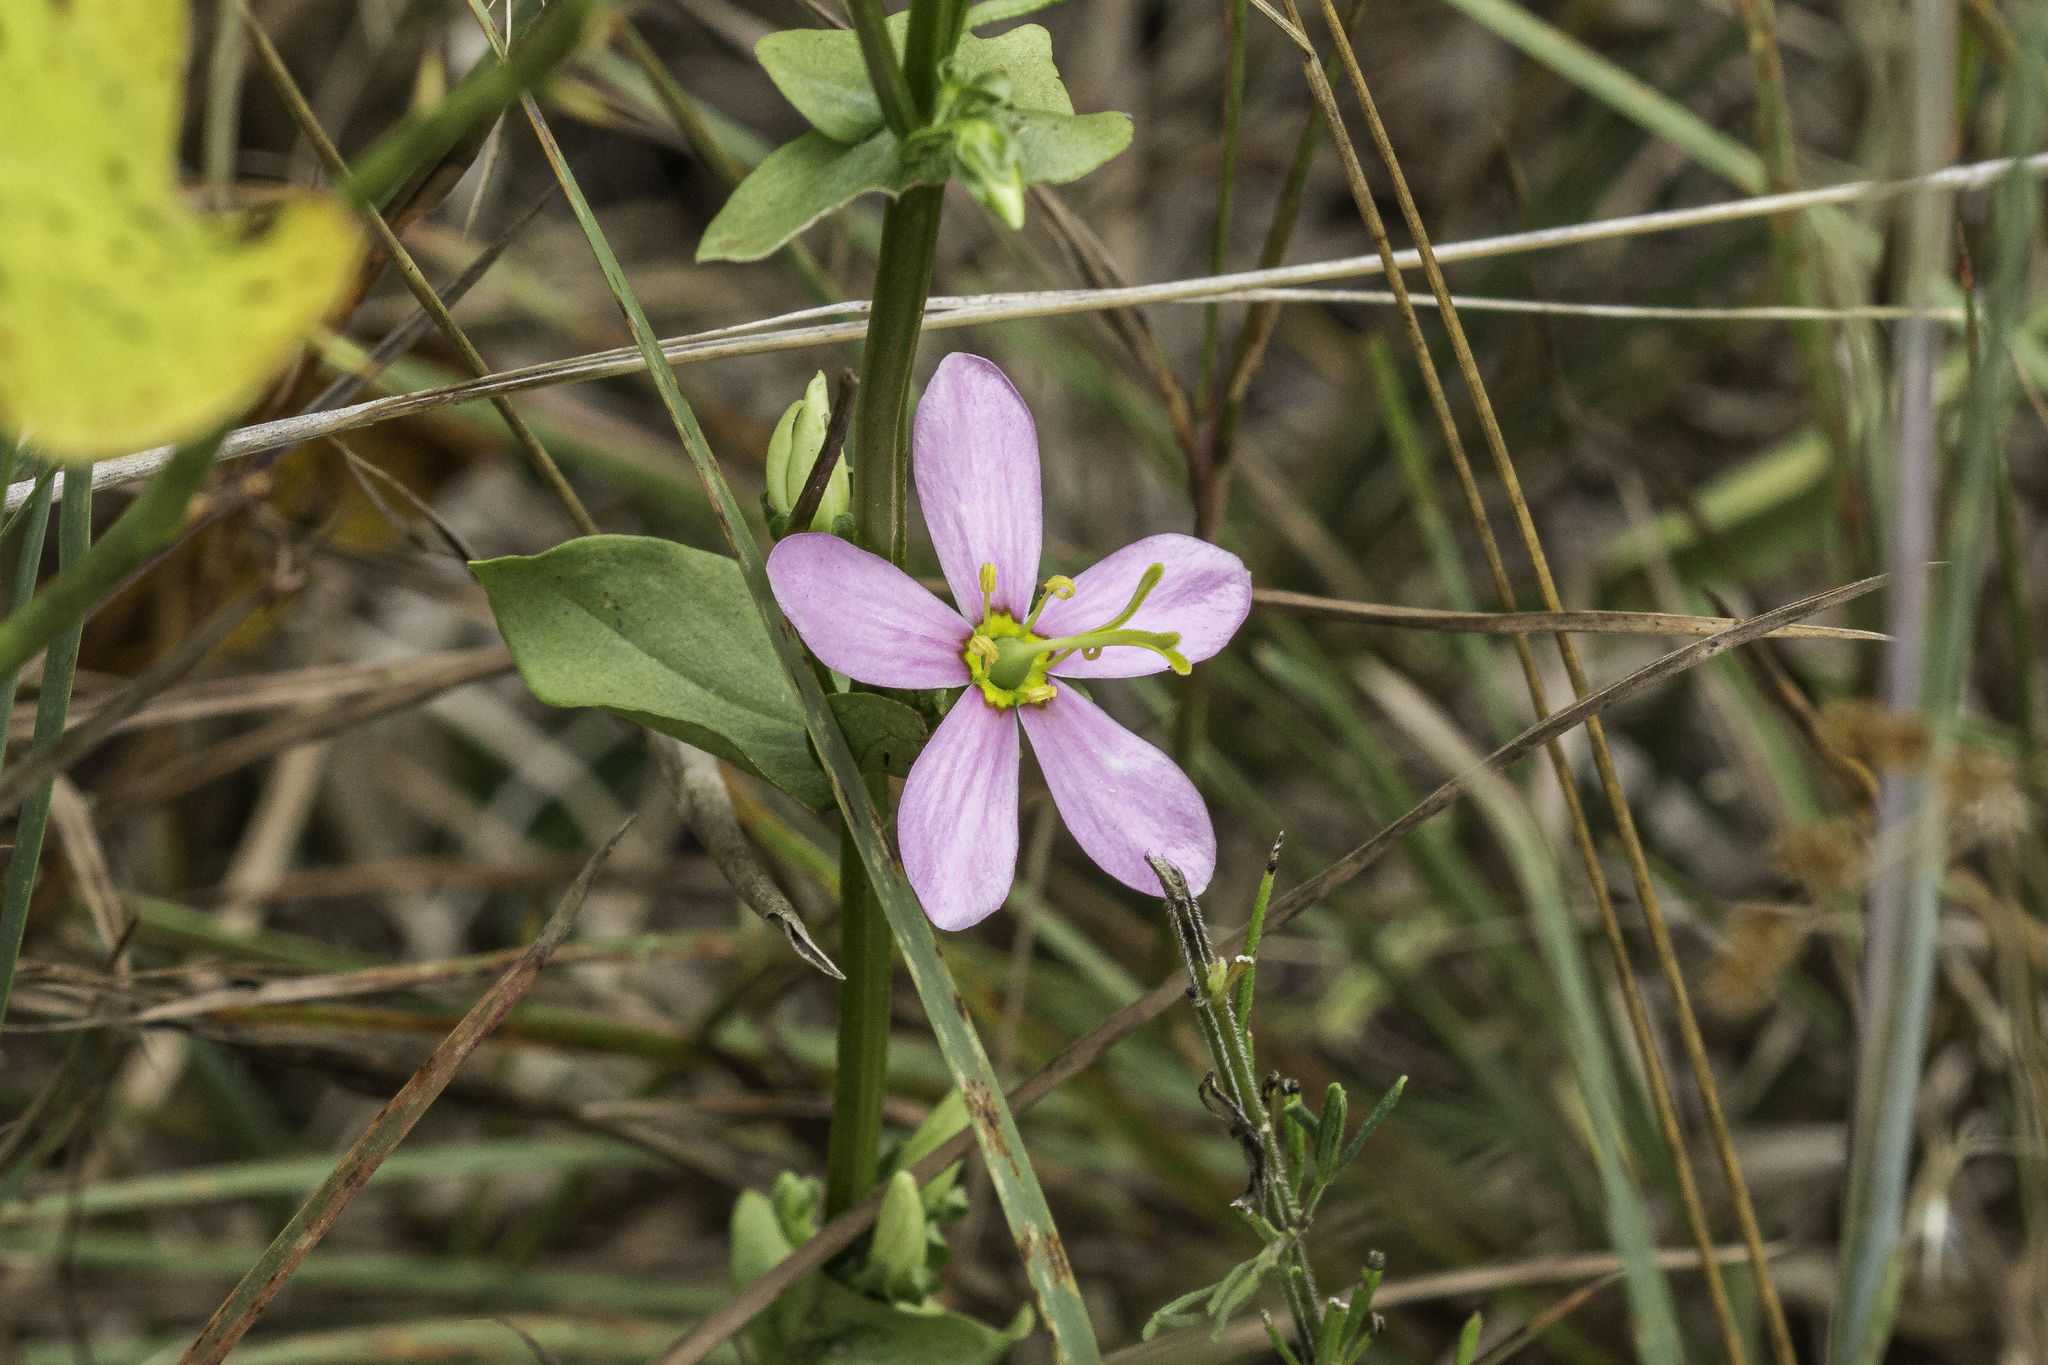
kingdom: Plantae
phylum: Tracheophyta
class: Magnoliopsida
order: Gentianales
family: Gentianaceae
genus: Sabatia
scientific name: Sabatia angularis
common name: Rose-pink
